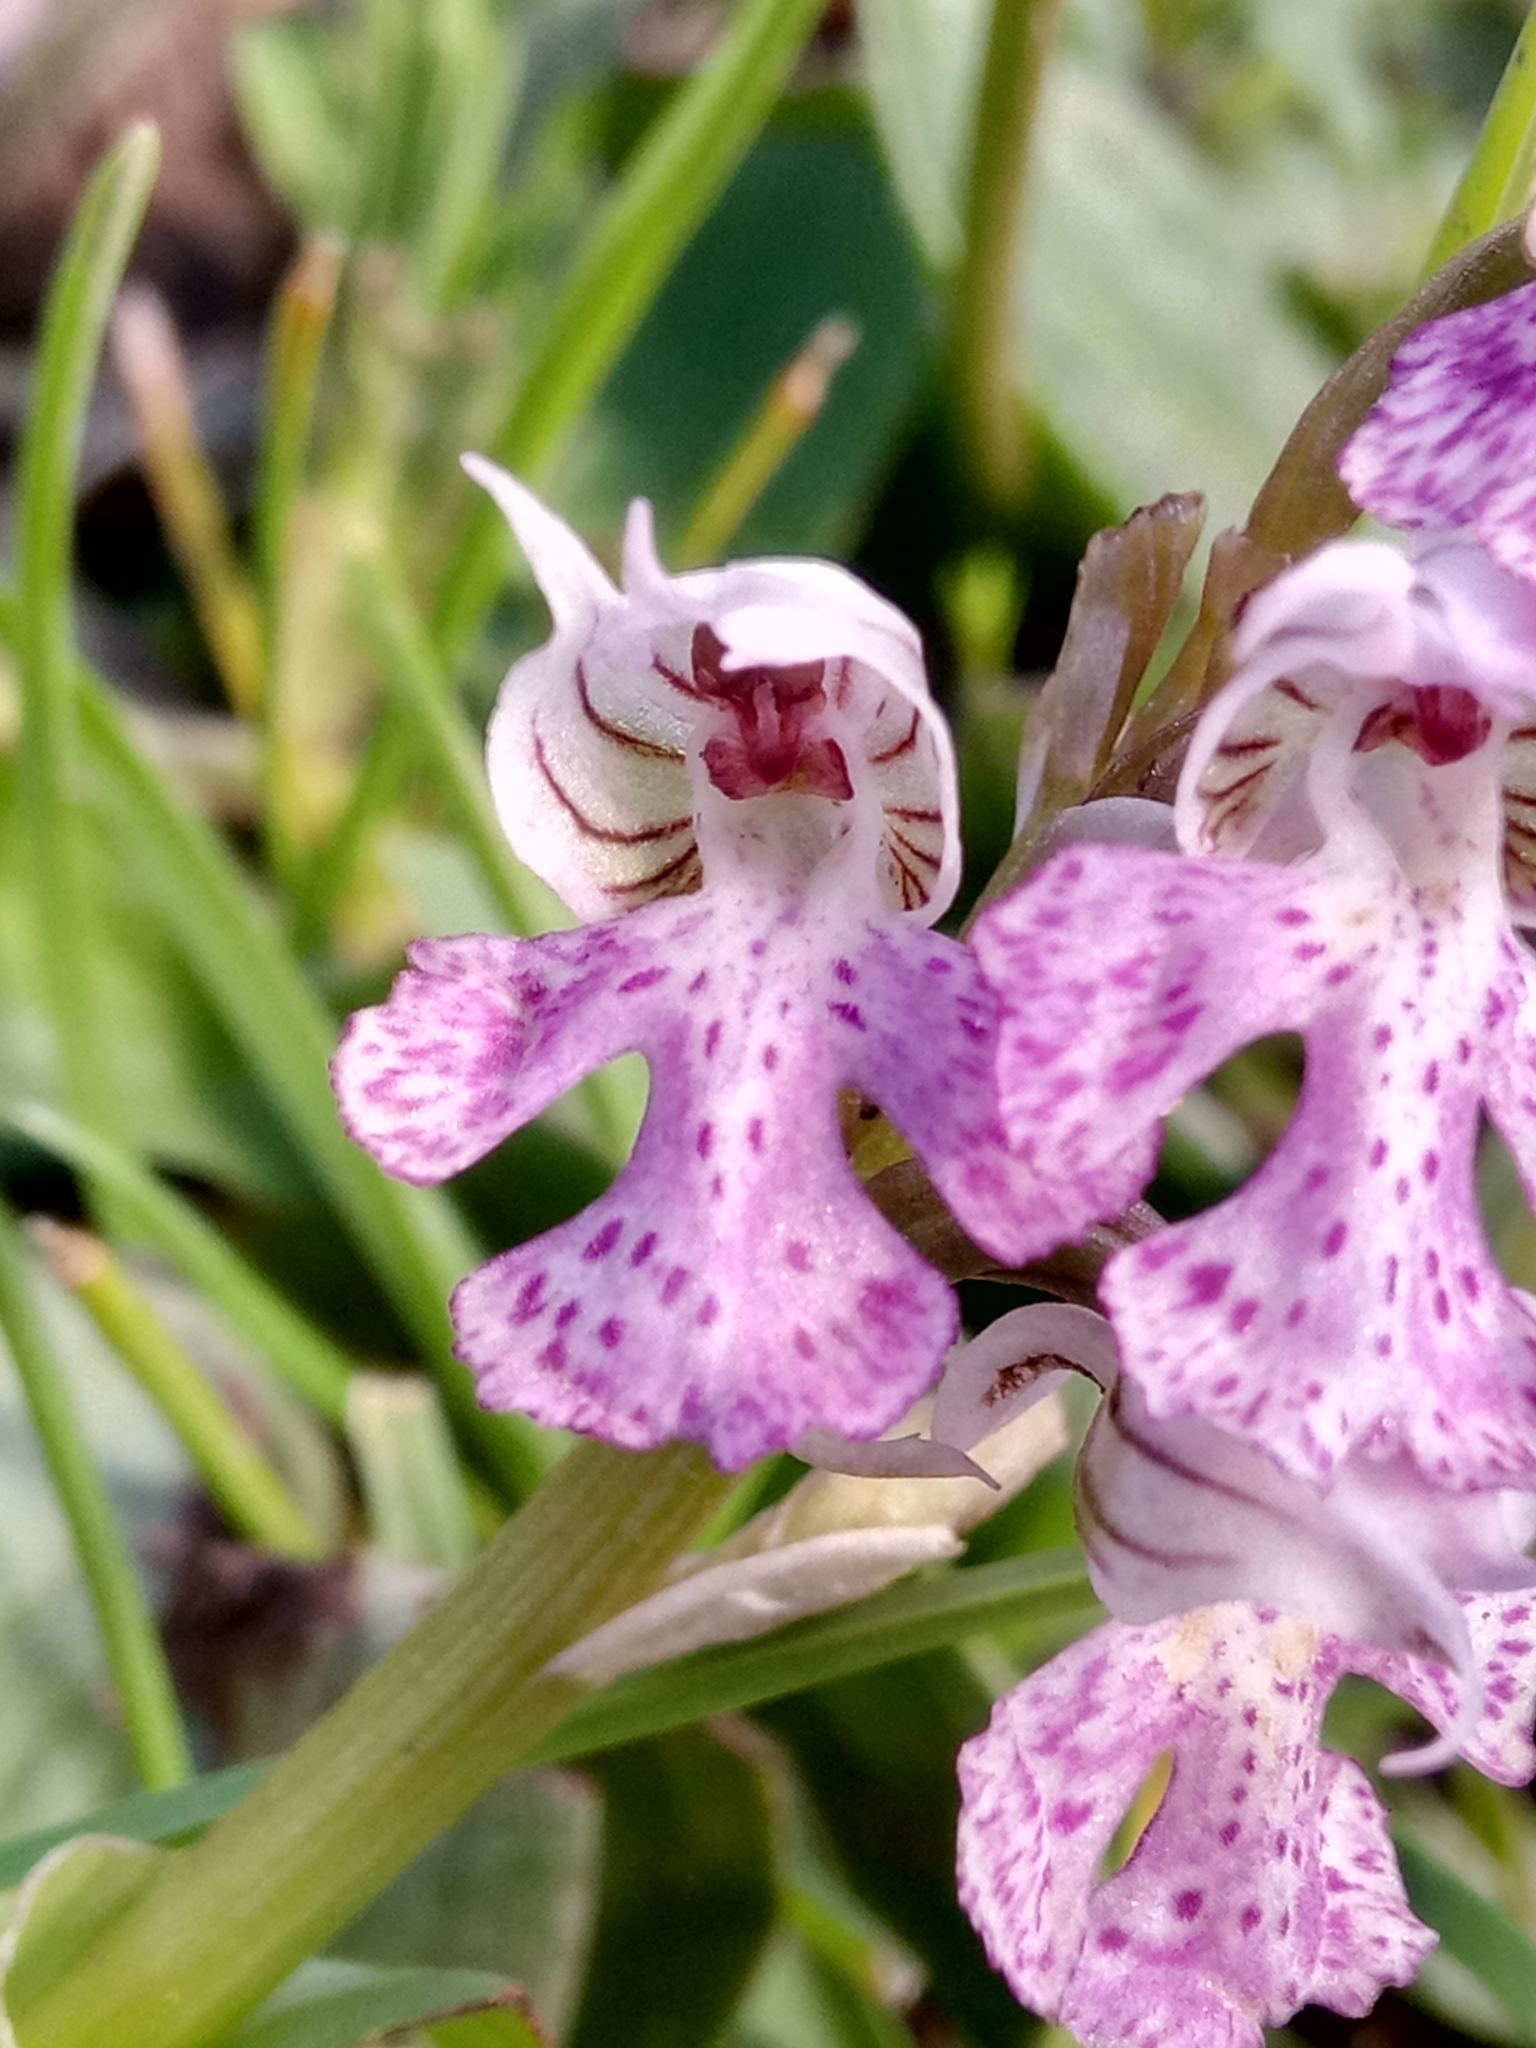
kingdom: Plantae
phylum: Tracheophyta
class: Liliopsida
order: Asparagales
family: Orchidaceae
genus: Neotinea
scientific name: Neotinea lactea
